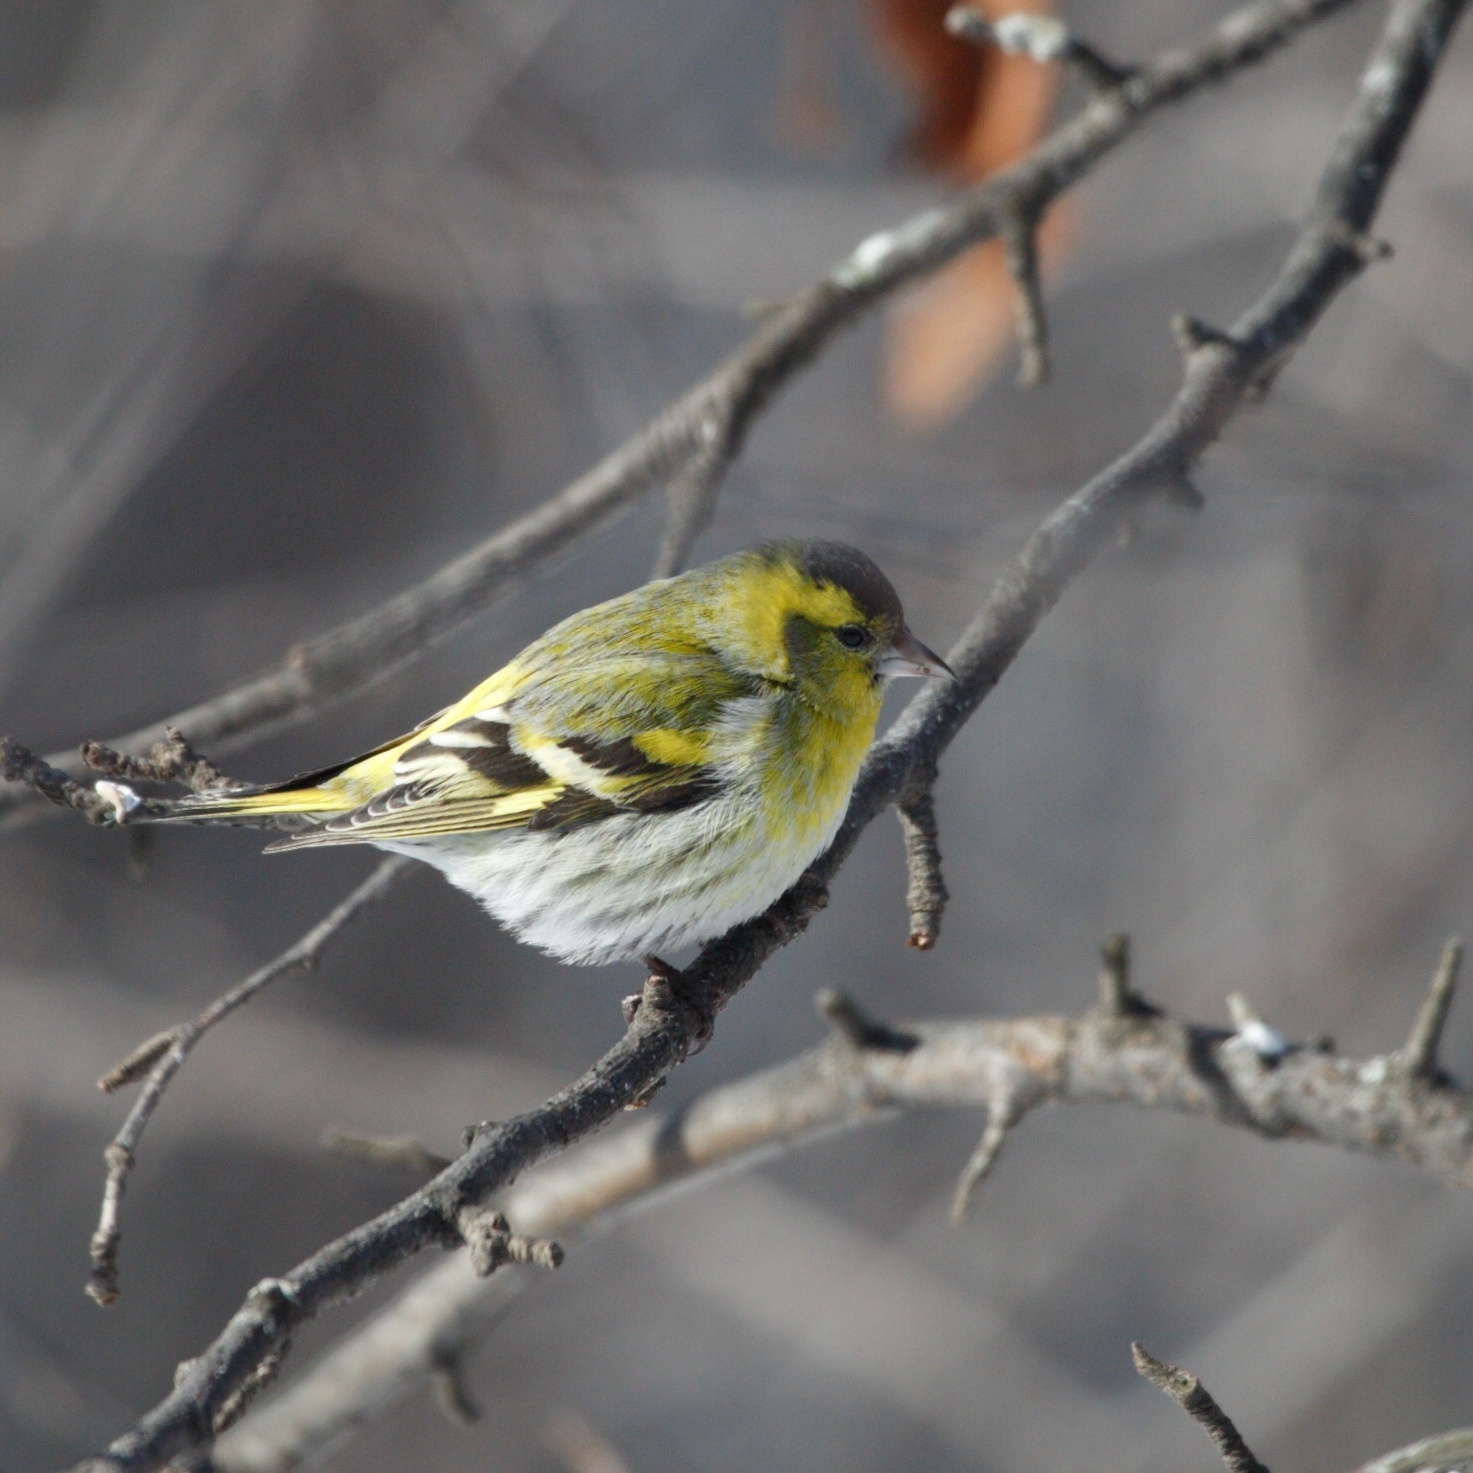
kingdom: Animalia
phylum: Chordata
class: Aves
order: Passeriformes
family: Fringillidae
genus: Spinus
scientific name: Spinus spinus
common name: Eurasian siskin
